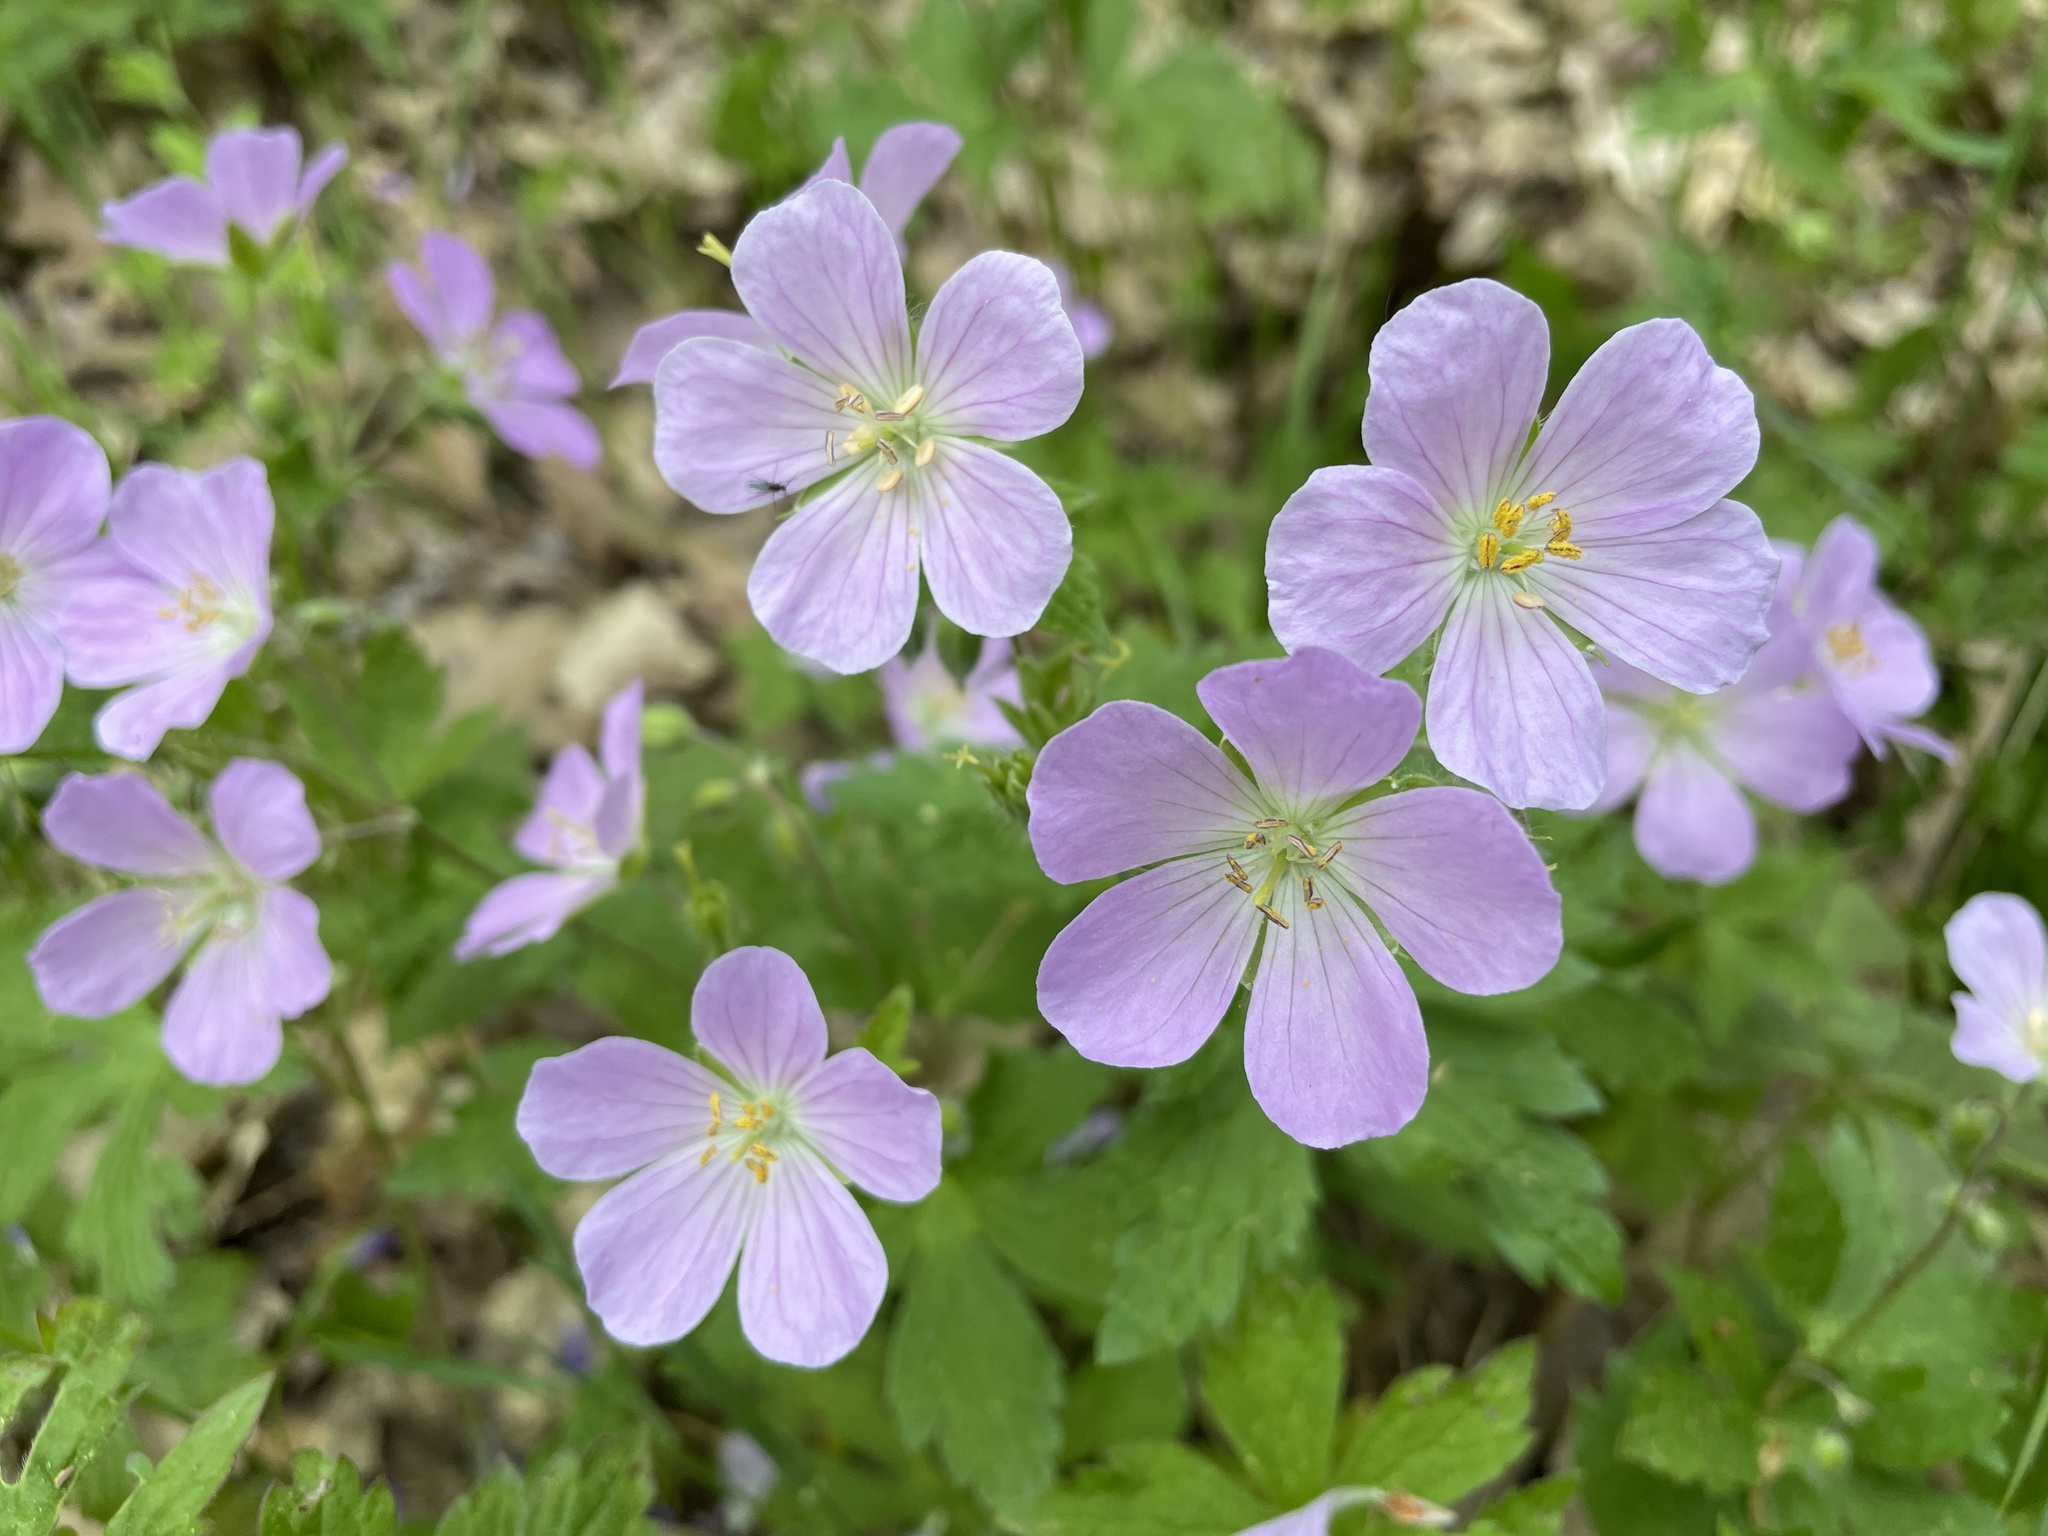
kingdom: Plantae
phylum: Tracheophyta
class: Magnoliopsida
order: Geraniales
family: Geraniaceae
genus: Geranium
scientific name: Geranium maculatum
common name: Spotted geranium
